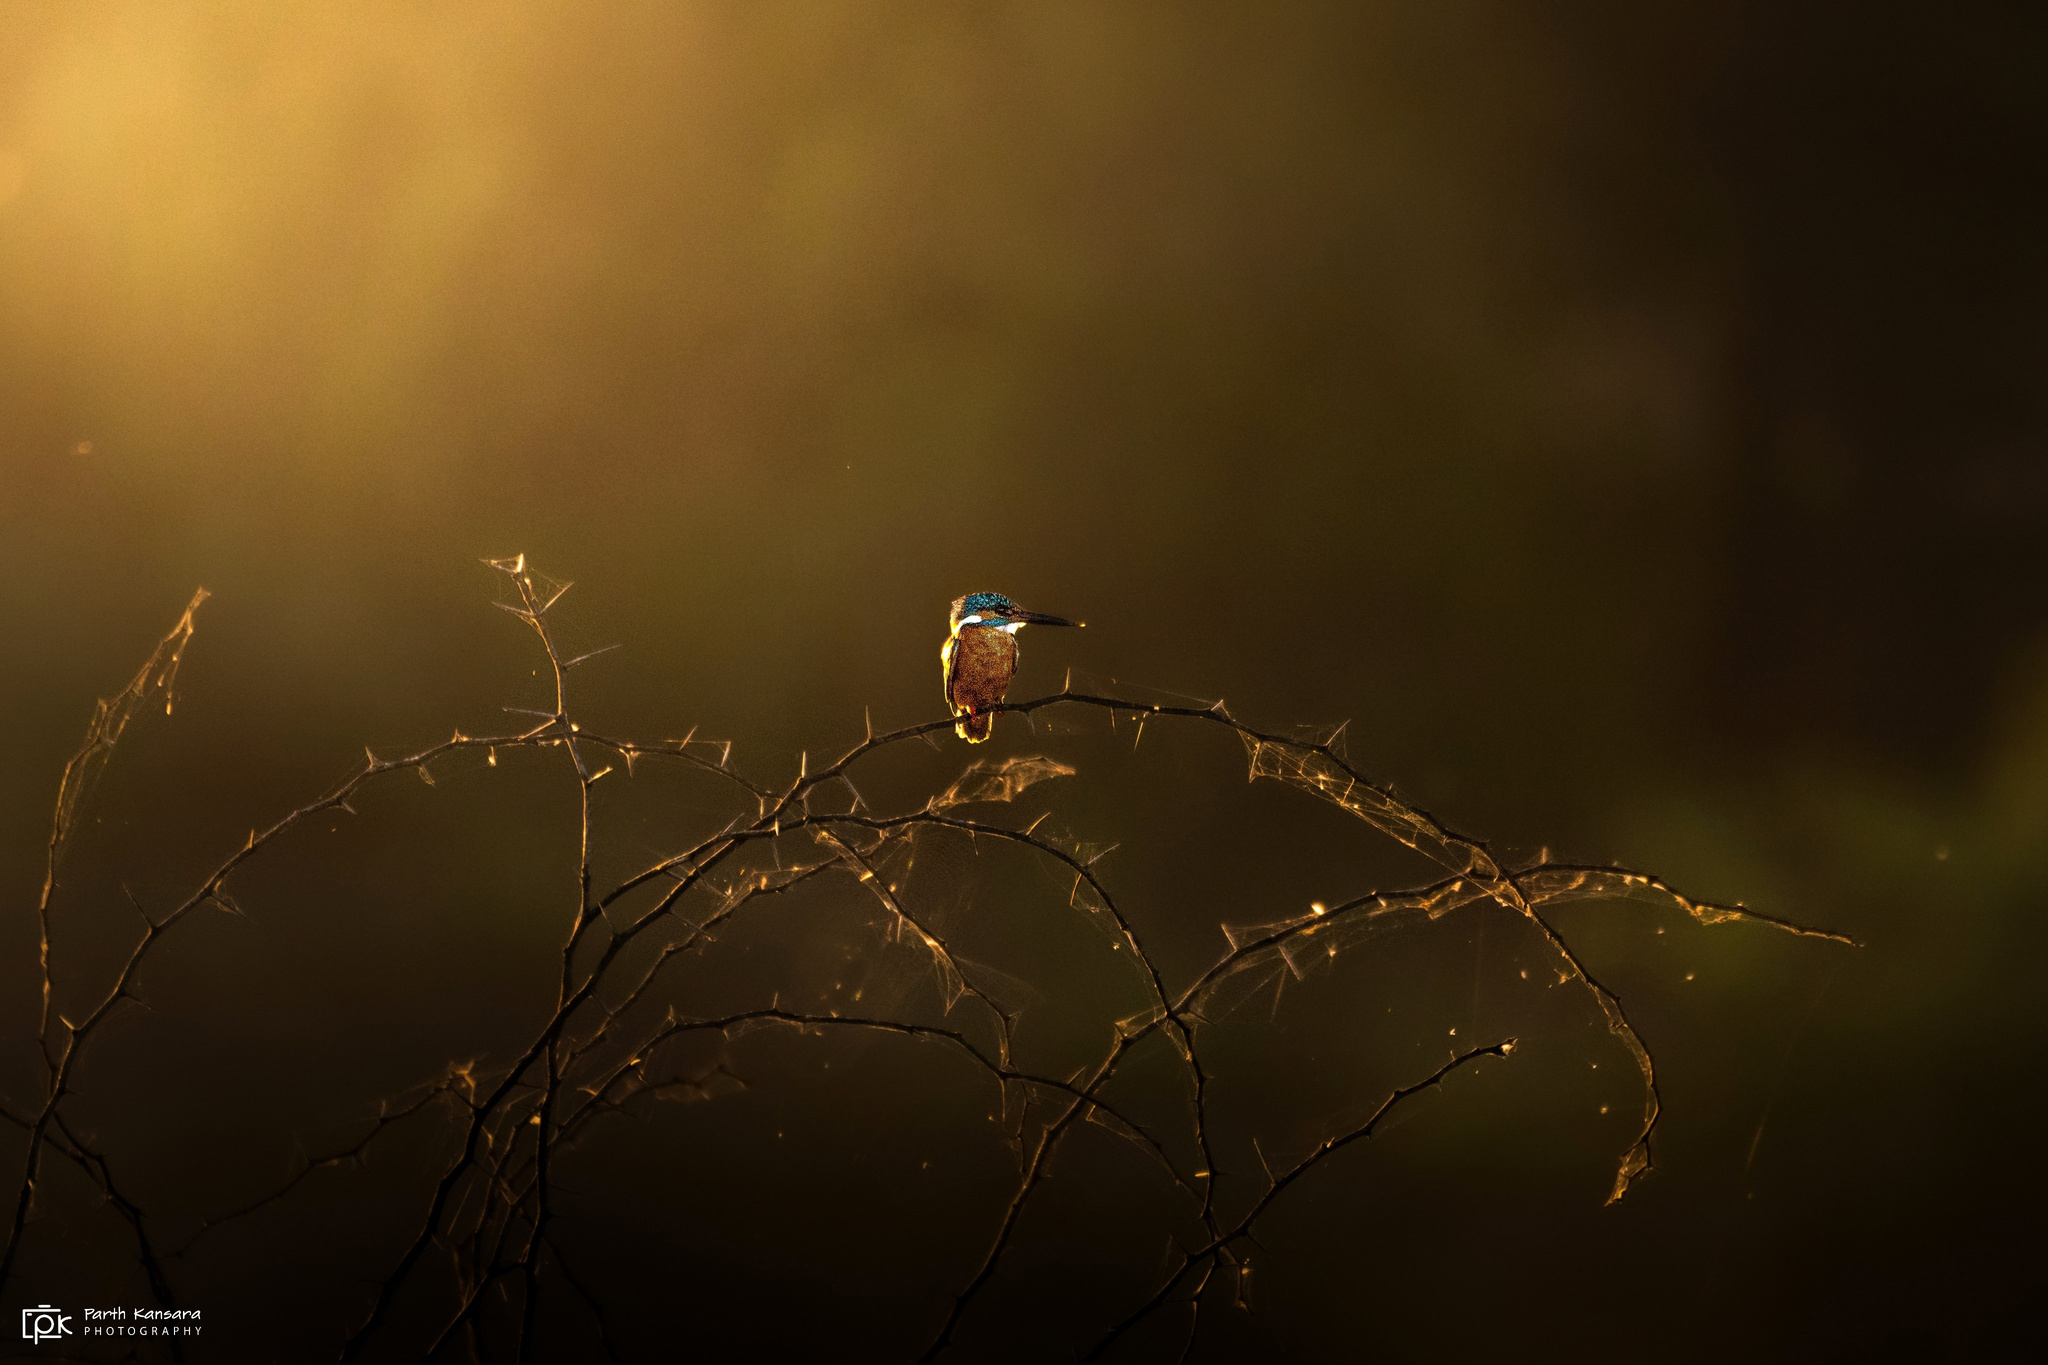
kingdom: Animalia
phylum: Chordata
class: Aves
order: Coraciiformes
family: Alcedinidae
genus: Alcedo
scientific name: Alcedo atthis
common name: Common kingfisher
